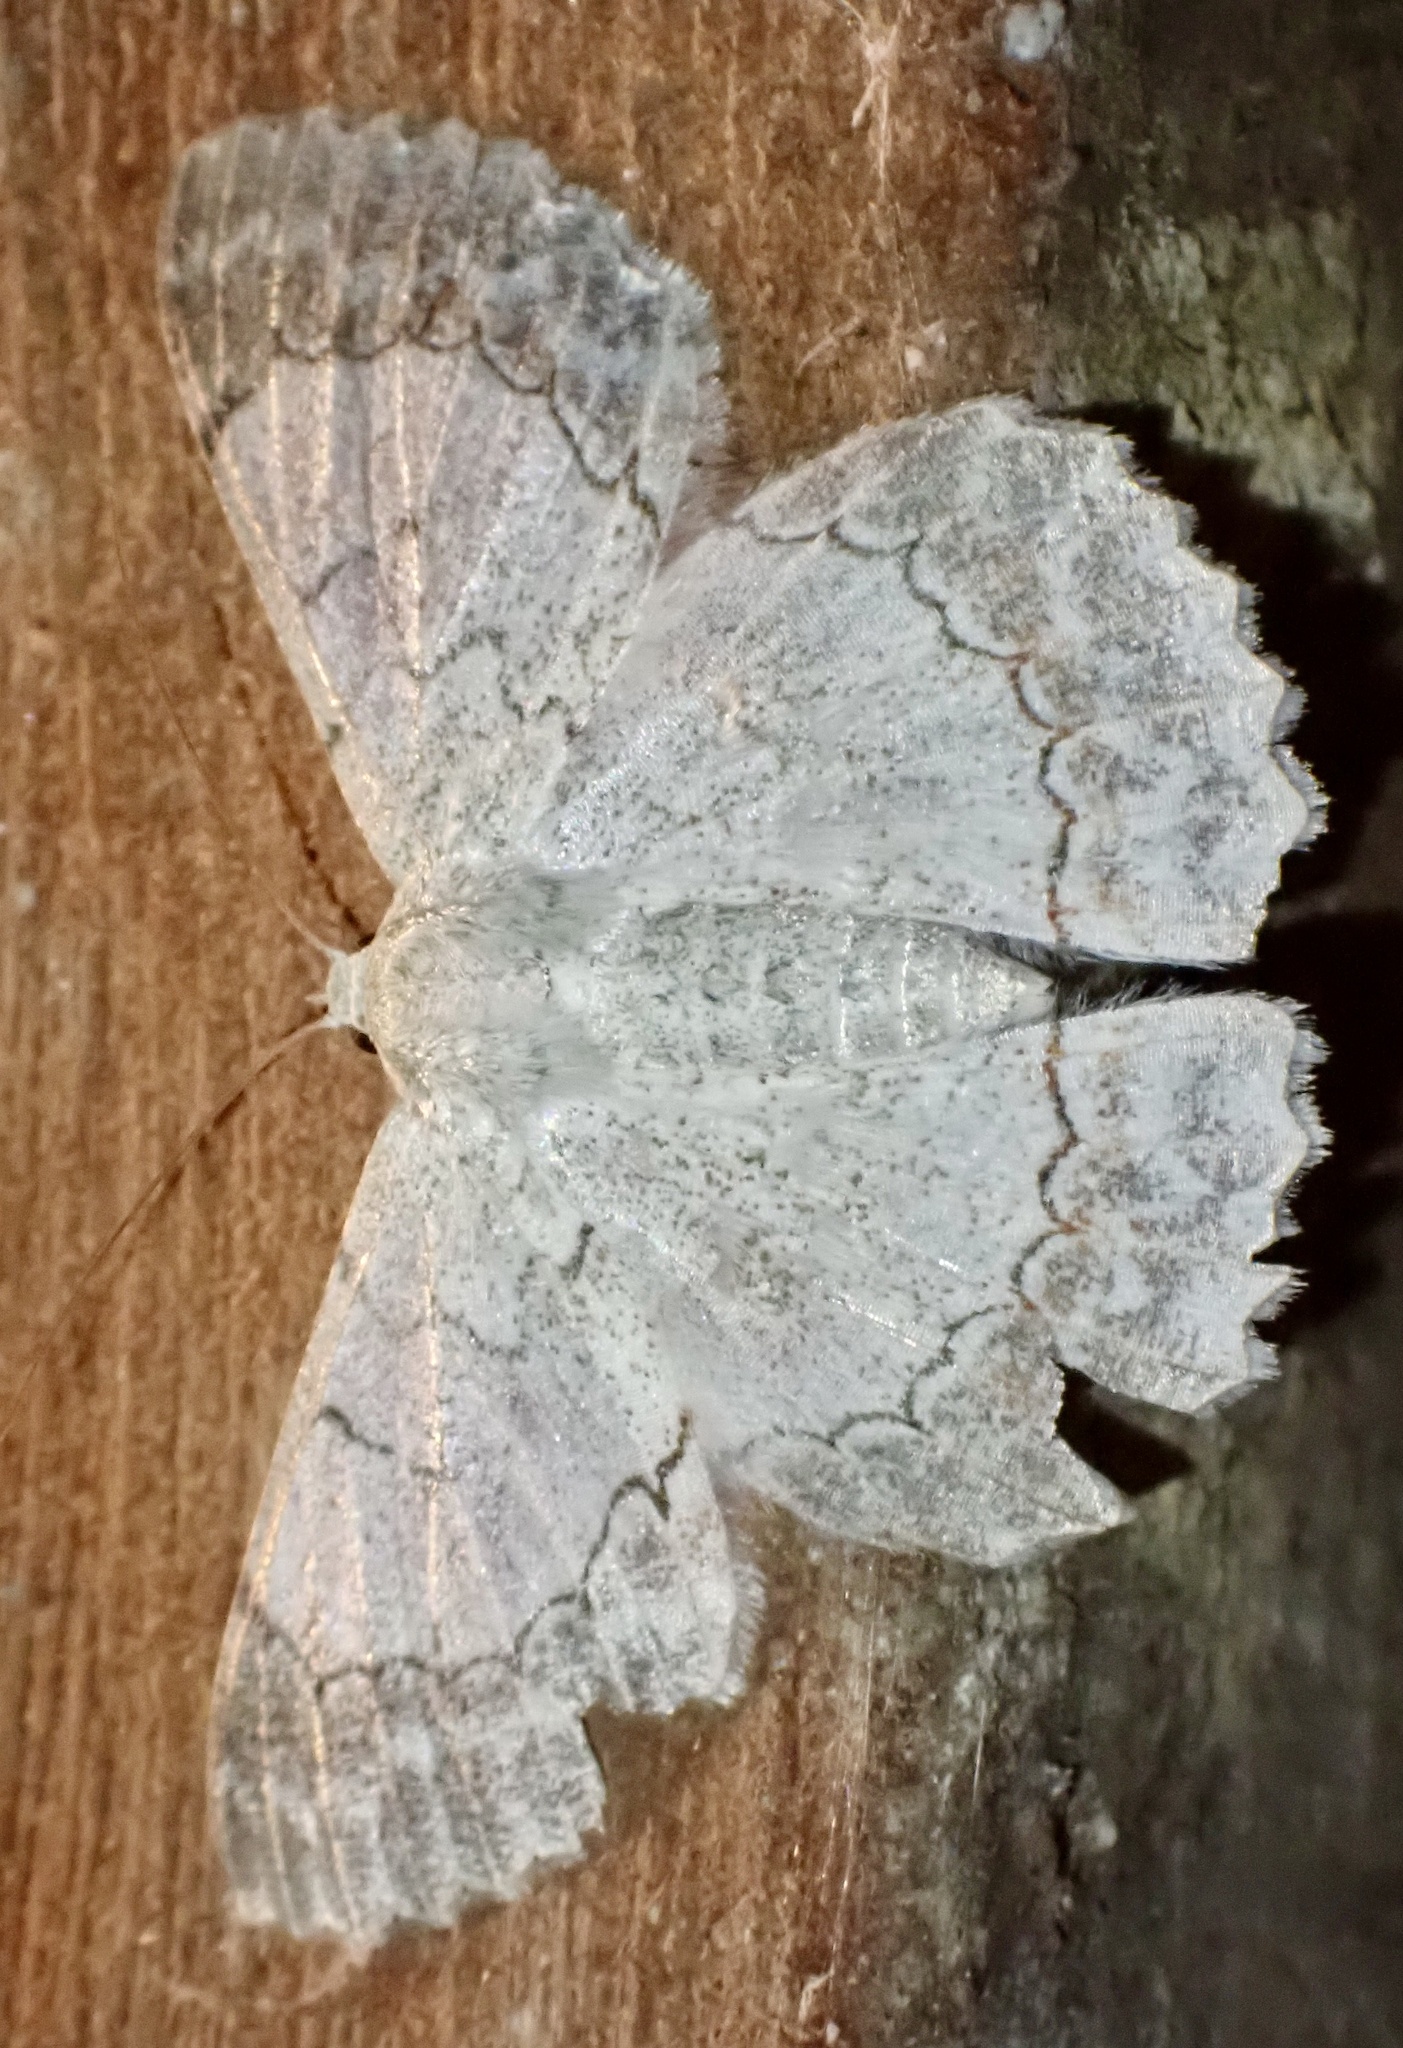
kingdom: Animalia
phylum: Arthropoda
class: Insecta
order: Lepidoptera
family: Geometridae
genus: Pingasa
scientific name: Pingasa chlora
